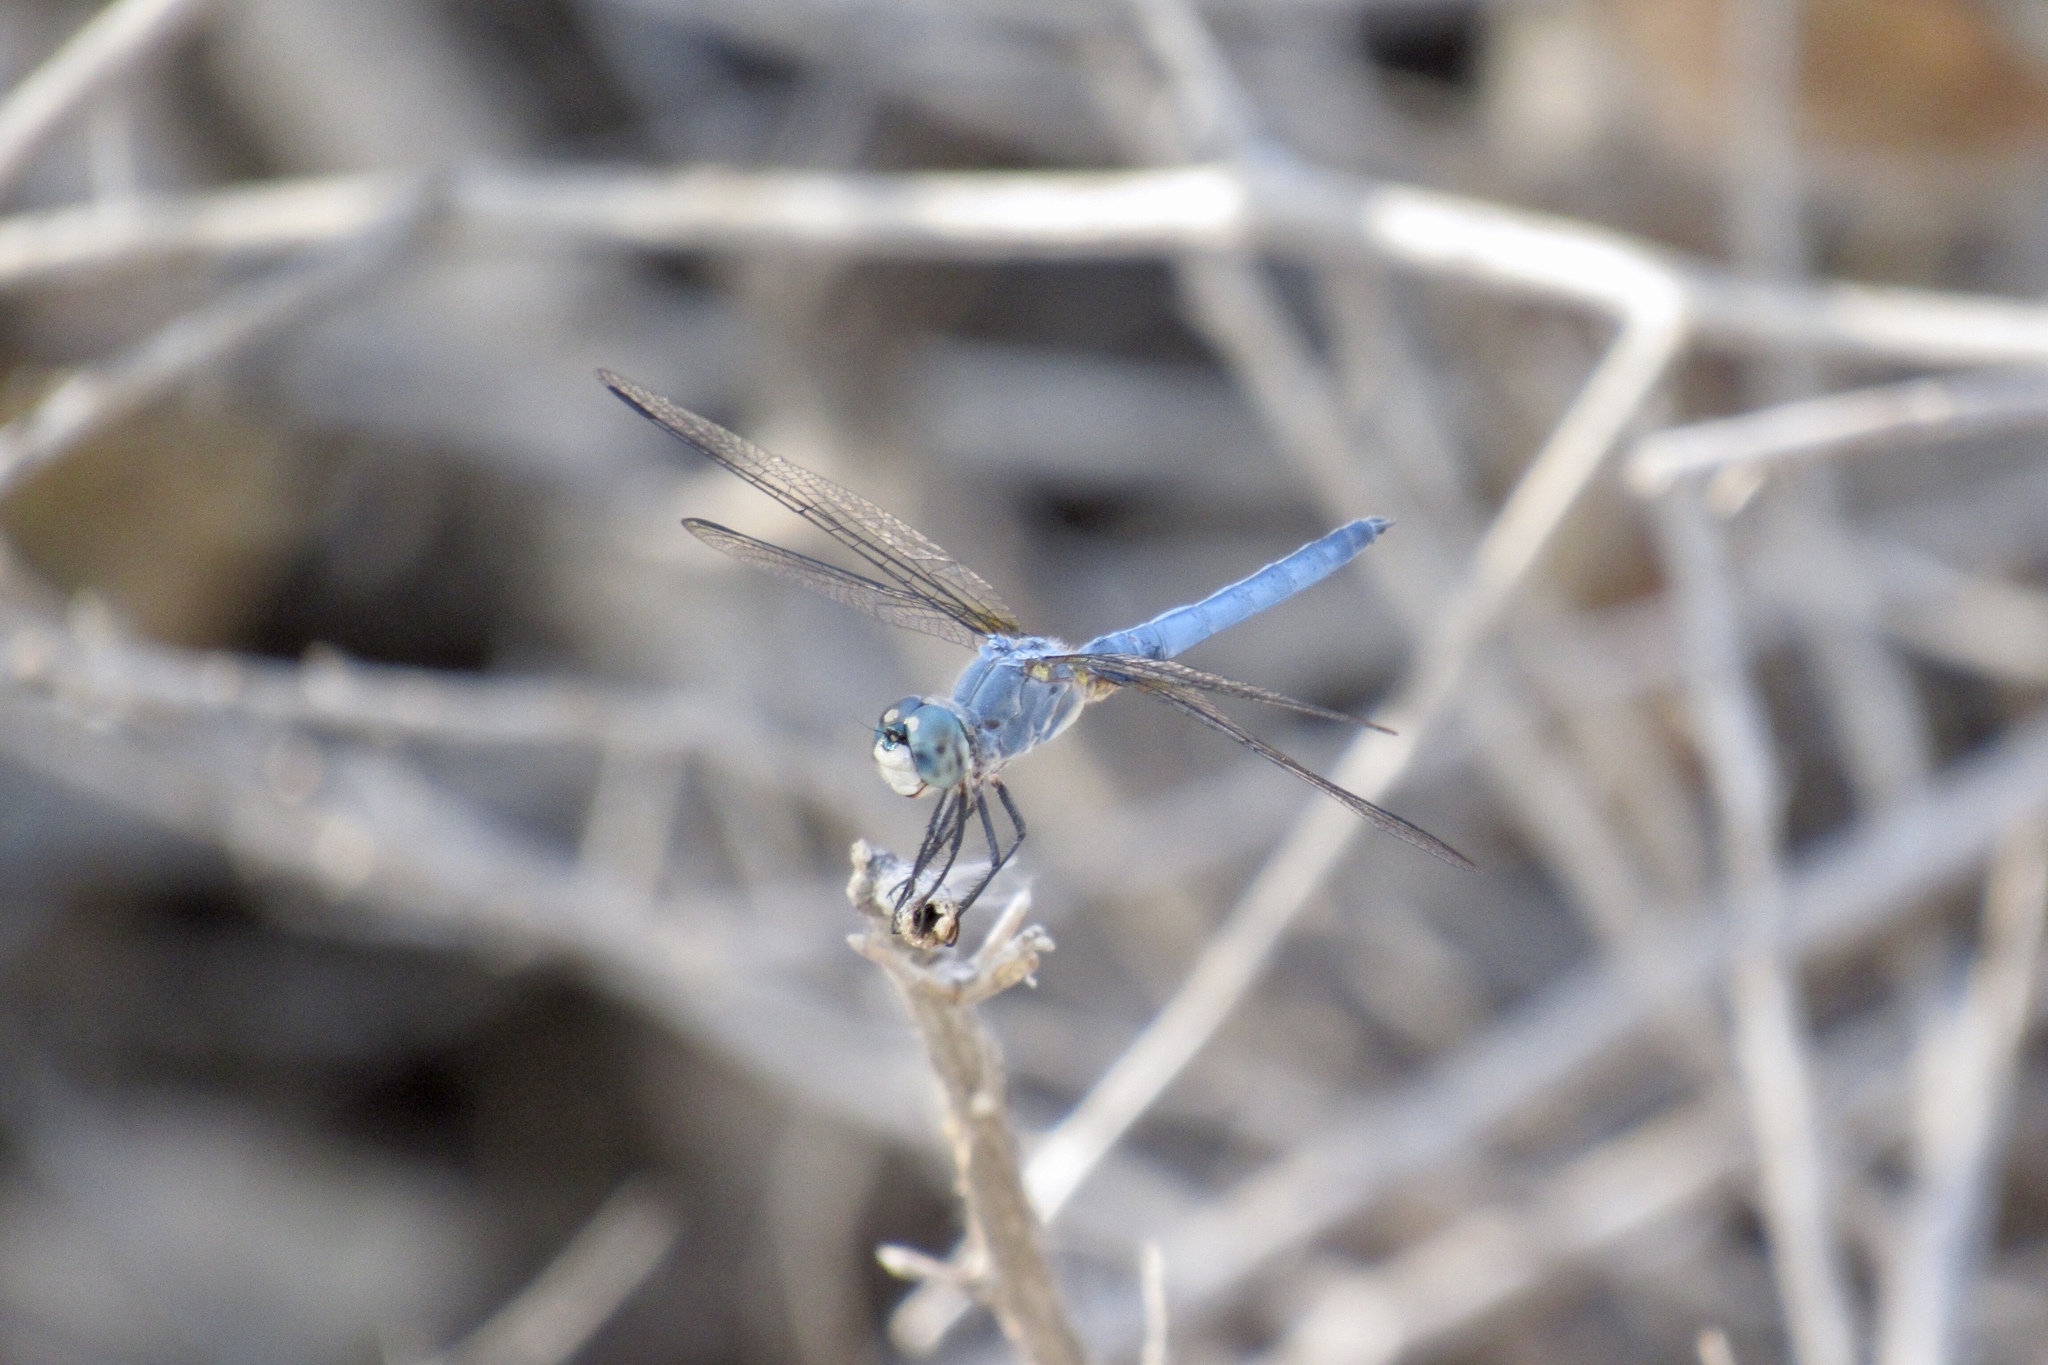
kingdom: Animalia
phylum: Arthropoda
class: Insecta
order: Odonata
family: Libellulidae
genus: Pachydiplax
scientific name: Pachydiplax longipennis
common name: Blue dasher
